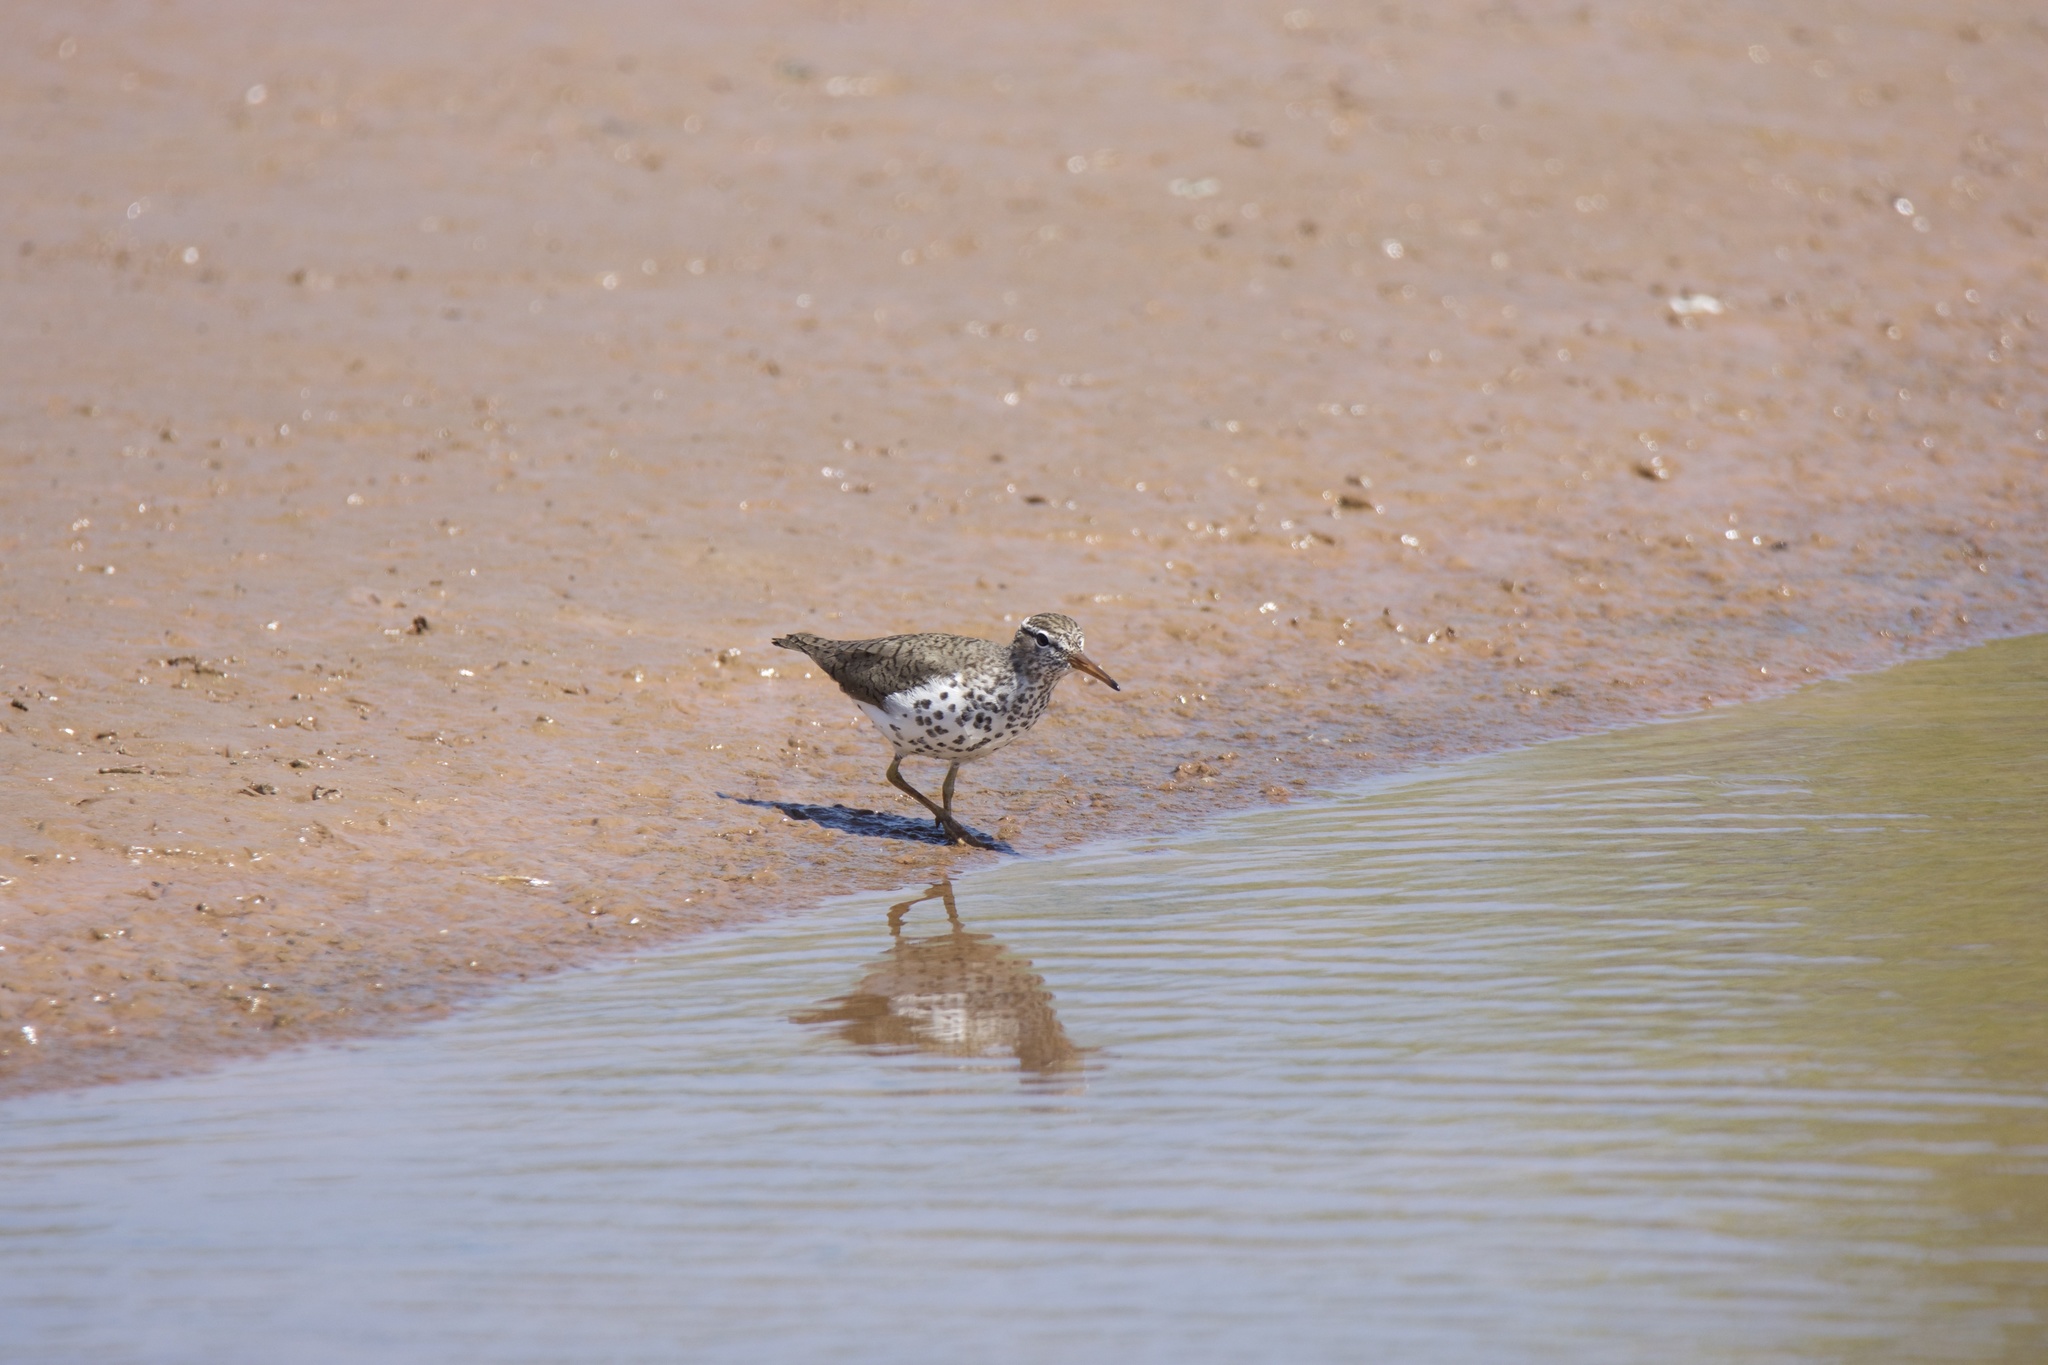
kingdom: Animalia
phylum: Chordata
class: Aves
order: Charadriiformes
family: Scolopacidae
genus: Actitis
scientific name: Actitis macularius
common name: Spotted sandpiper
